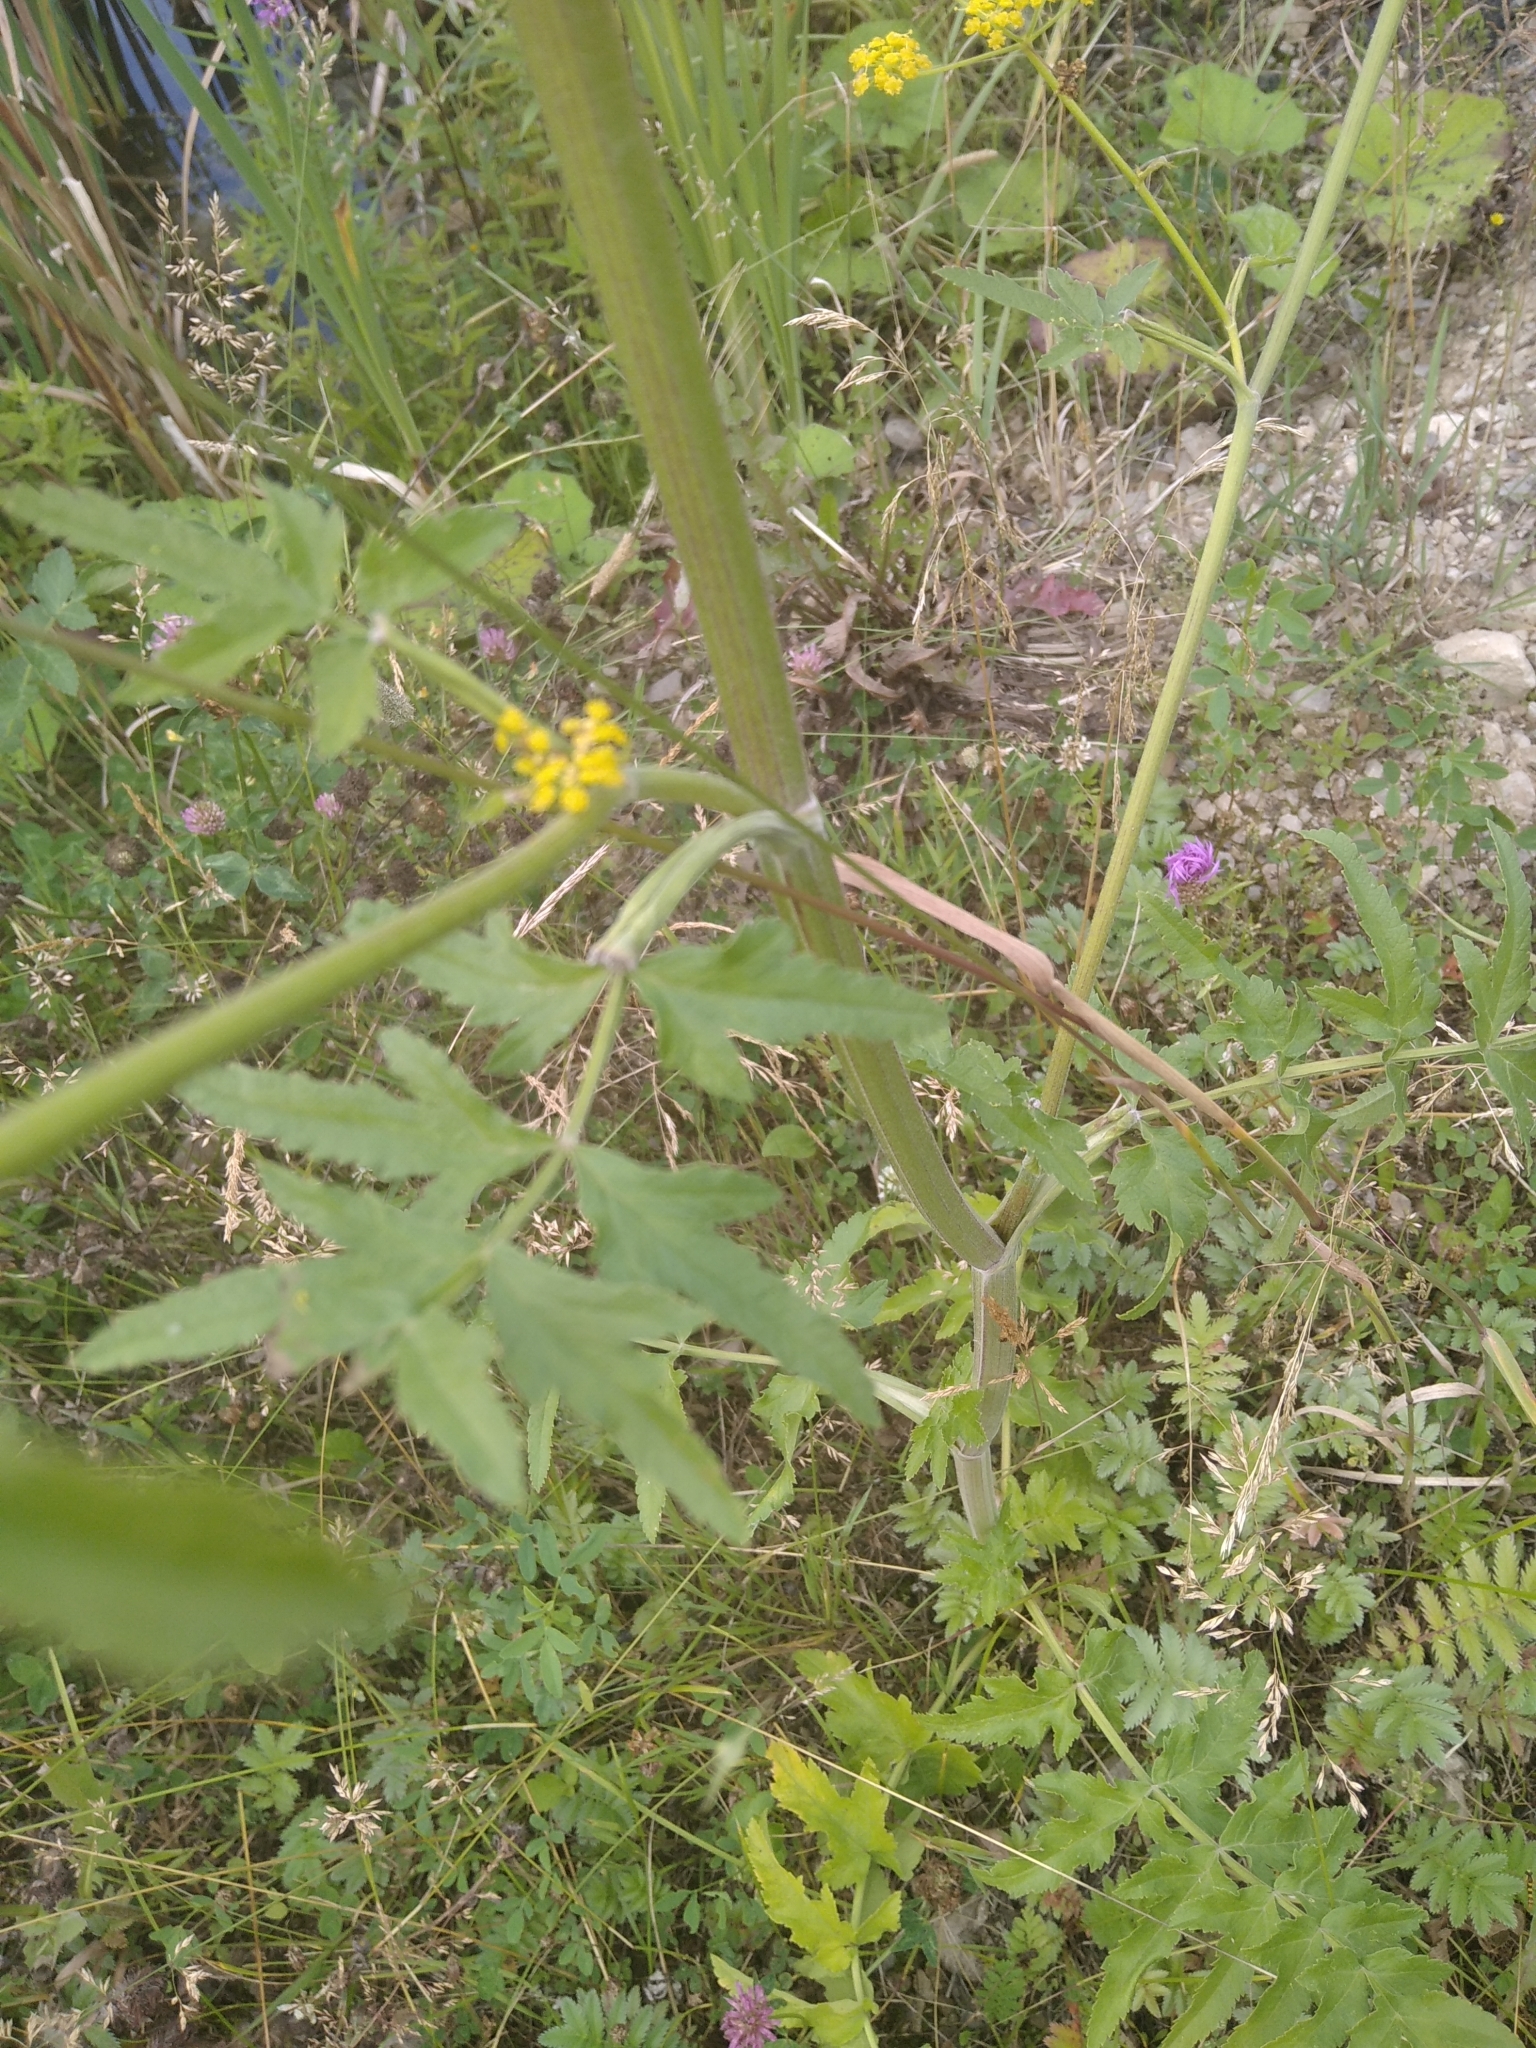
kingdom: Plantae
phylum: Tracheophyta
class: Magnoliopsida
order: Apiales
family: Apiaceae
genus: Pastinaca
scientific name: Pastinaca sativa
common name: Wild parsnip
